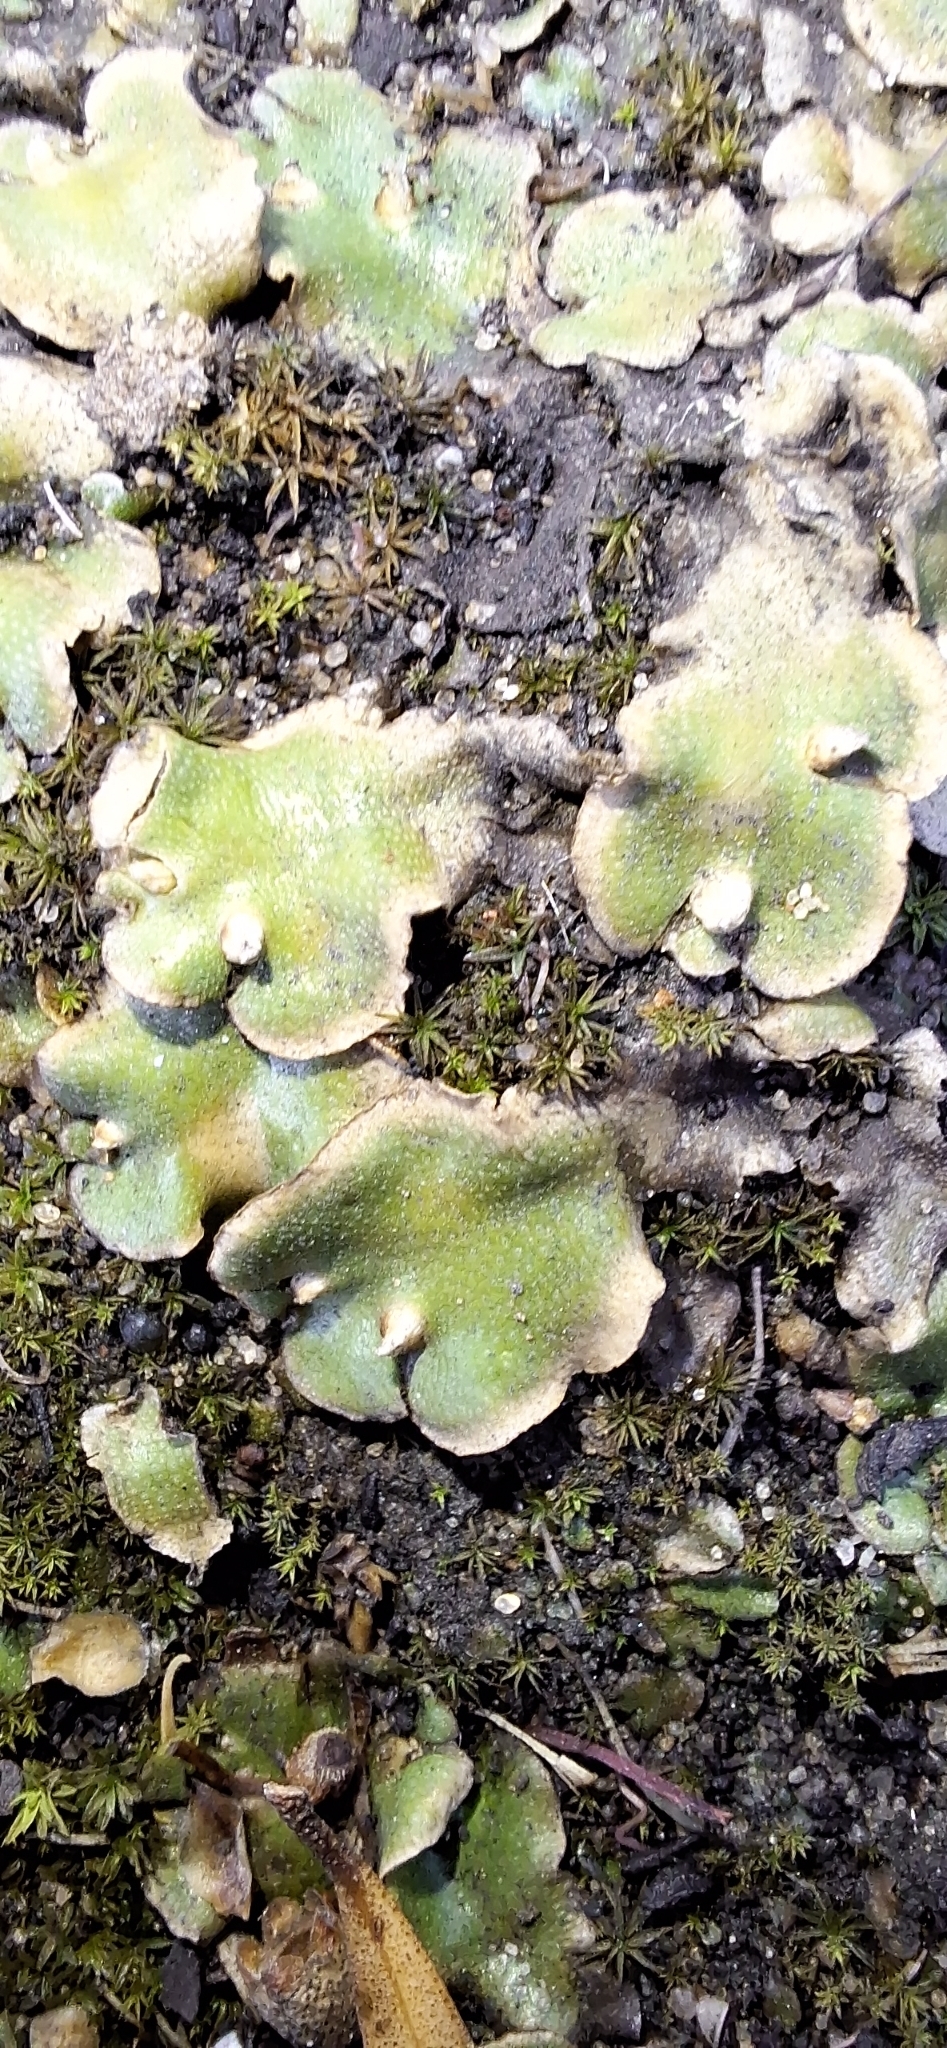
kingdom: Plantae
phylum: Marchantiophyta
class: Marchantiopsida
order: Lunulariales
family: Lunulariaceae
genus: Lunularia
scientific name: Lunularia cruciata
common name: Crescent-cup liverwort
